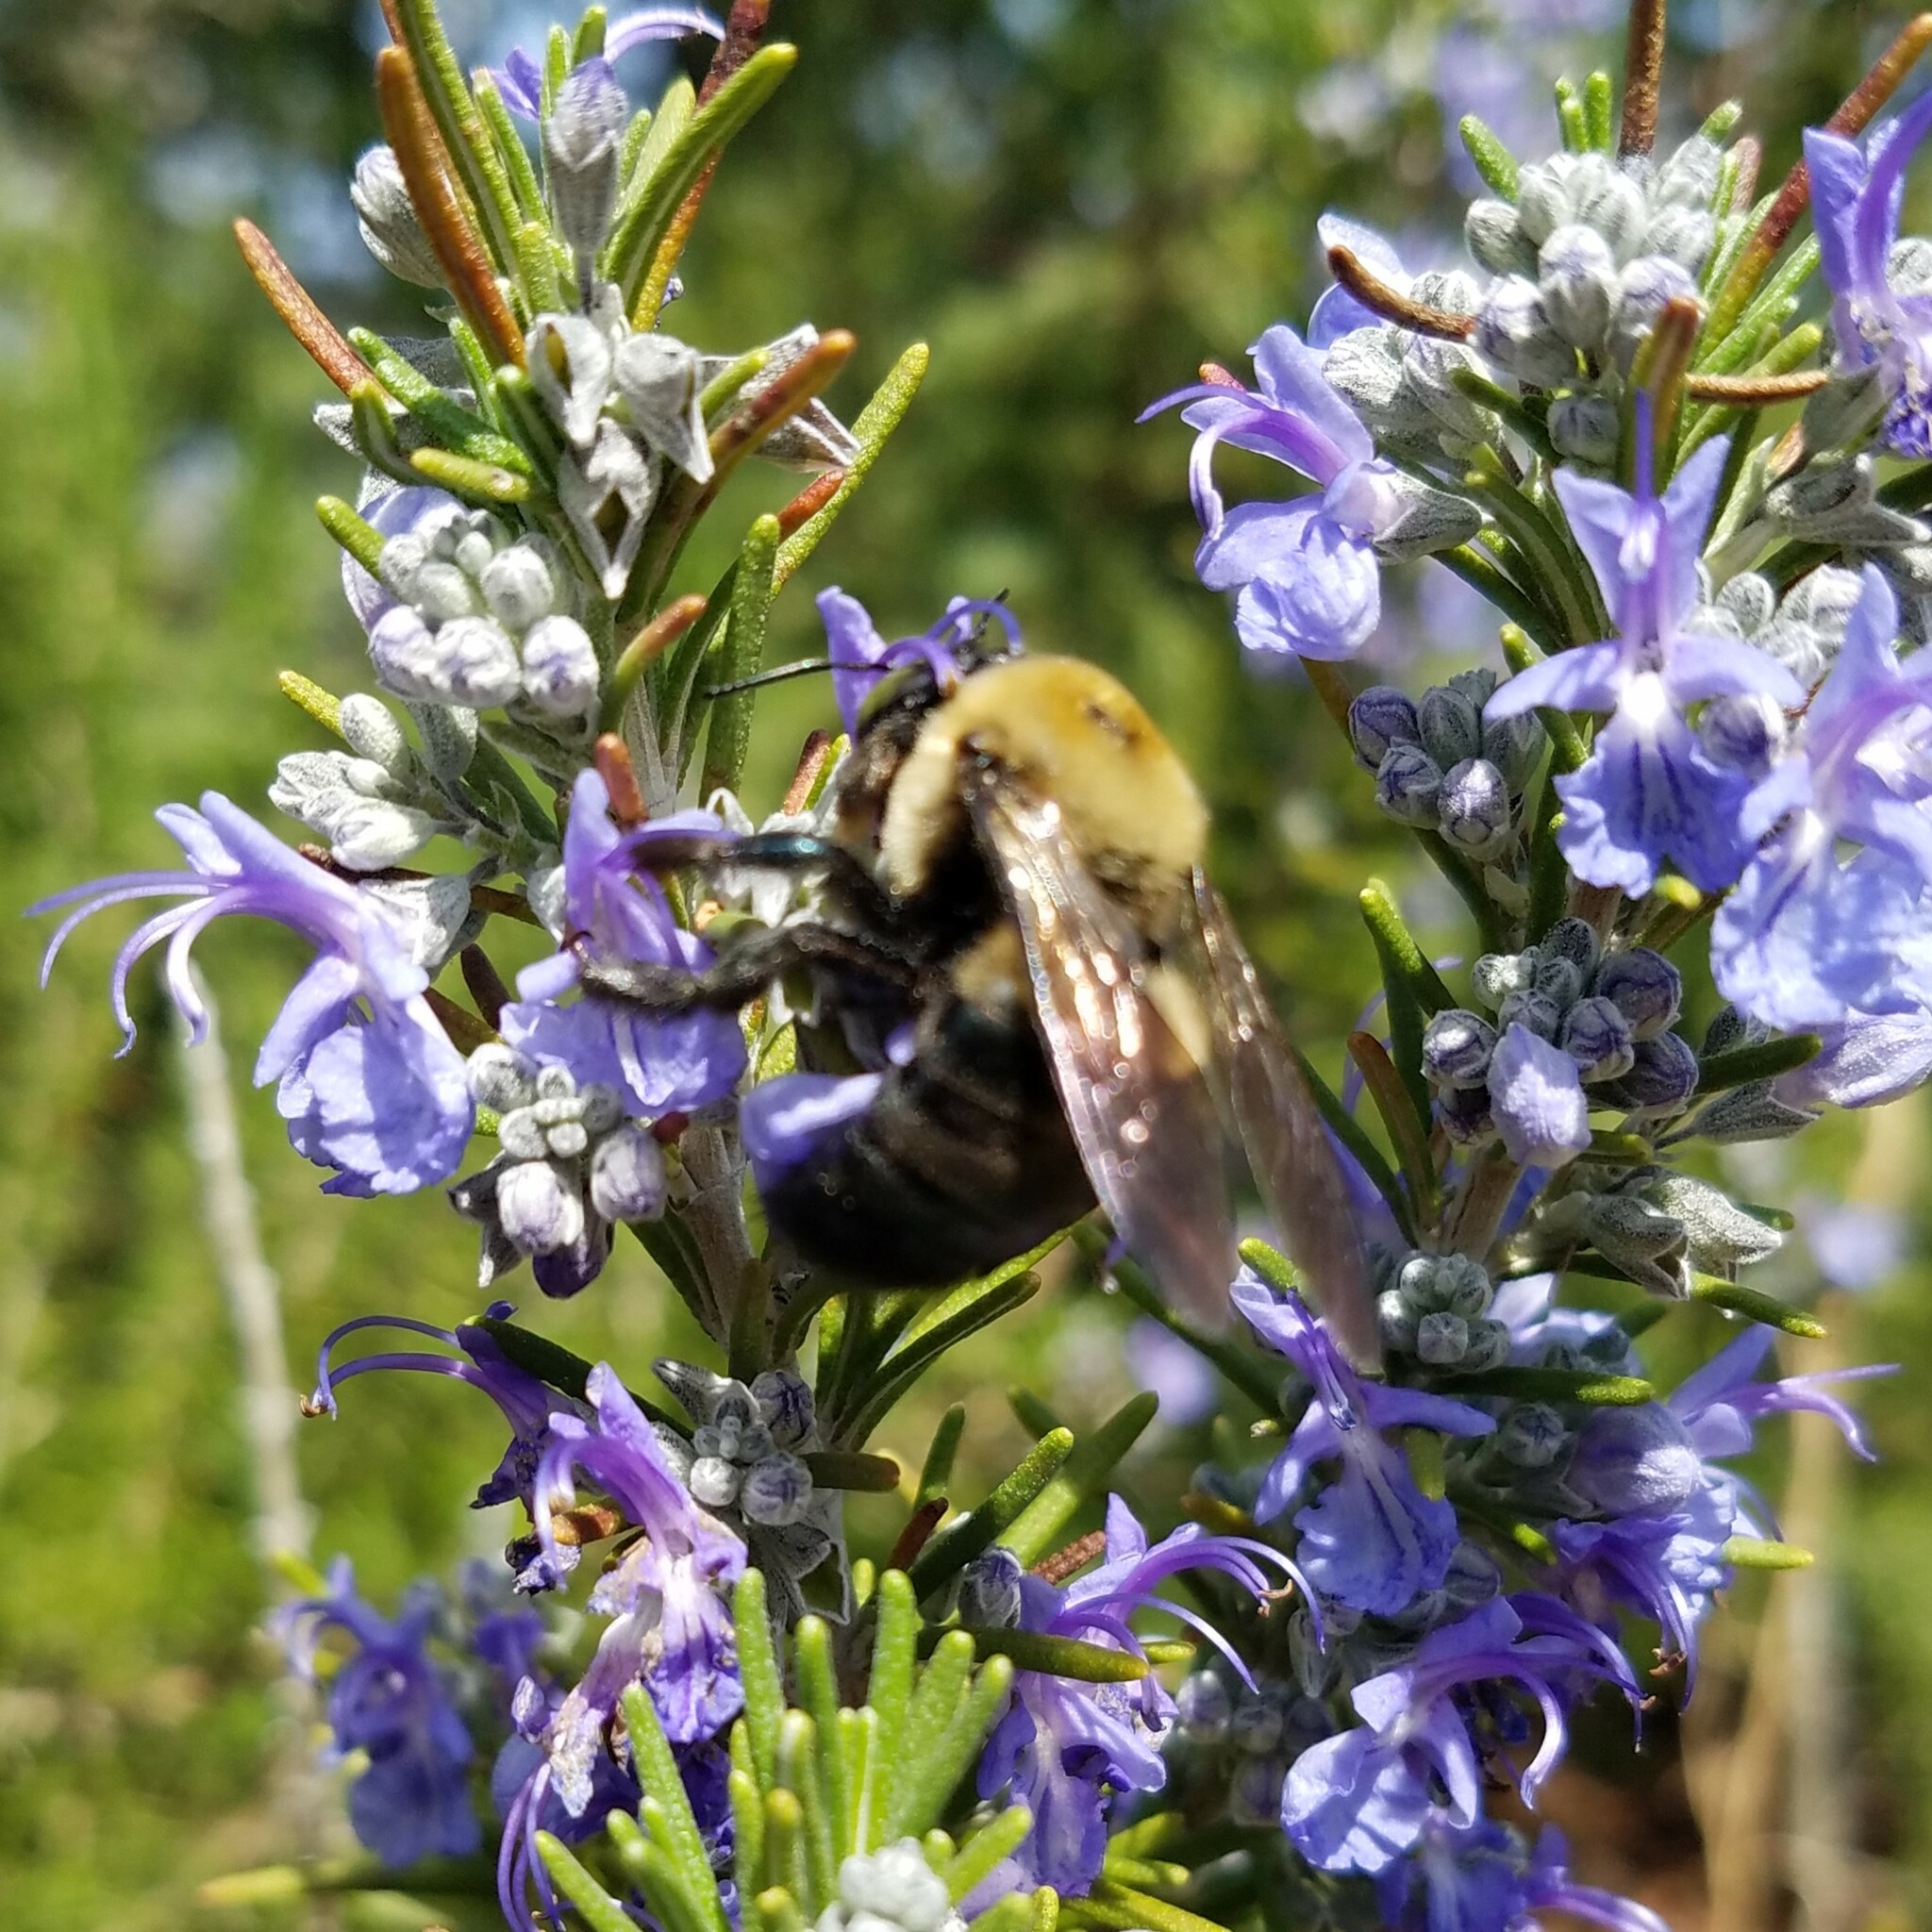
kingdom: Animalia
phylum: Arthropoda
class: Insecta
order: Hymenoptera
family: Apidae
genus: Xylocopa
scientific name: Xylocopa virginica
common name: Carpenter bee
